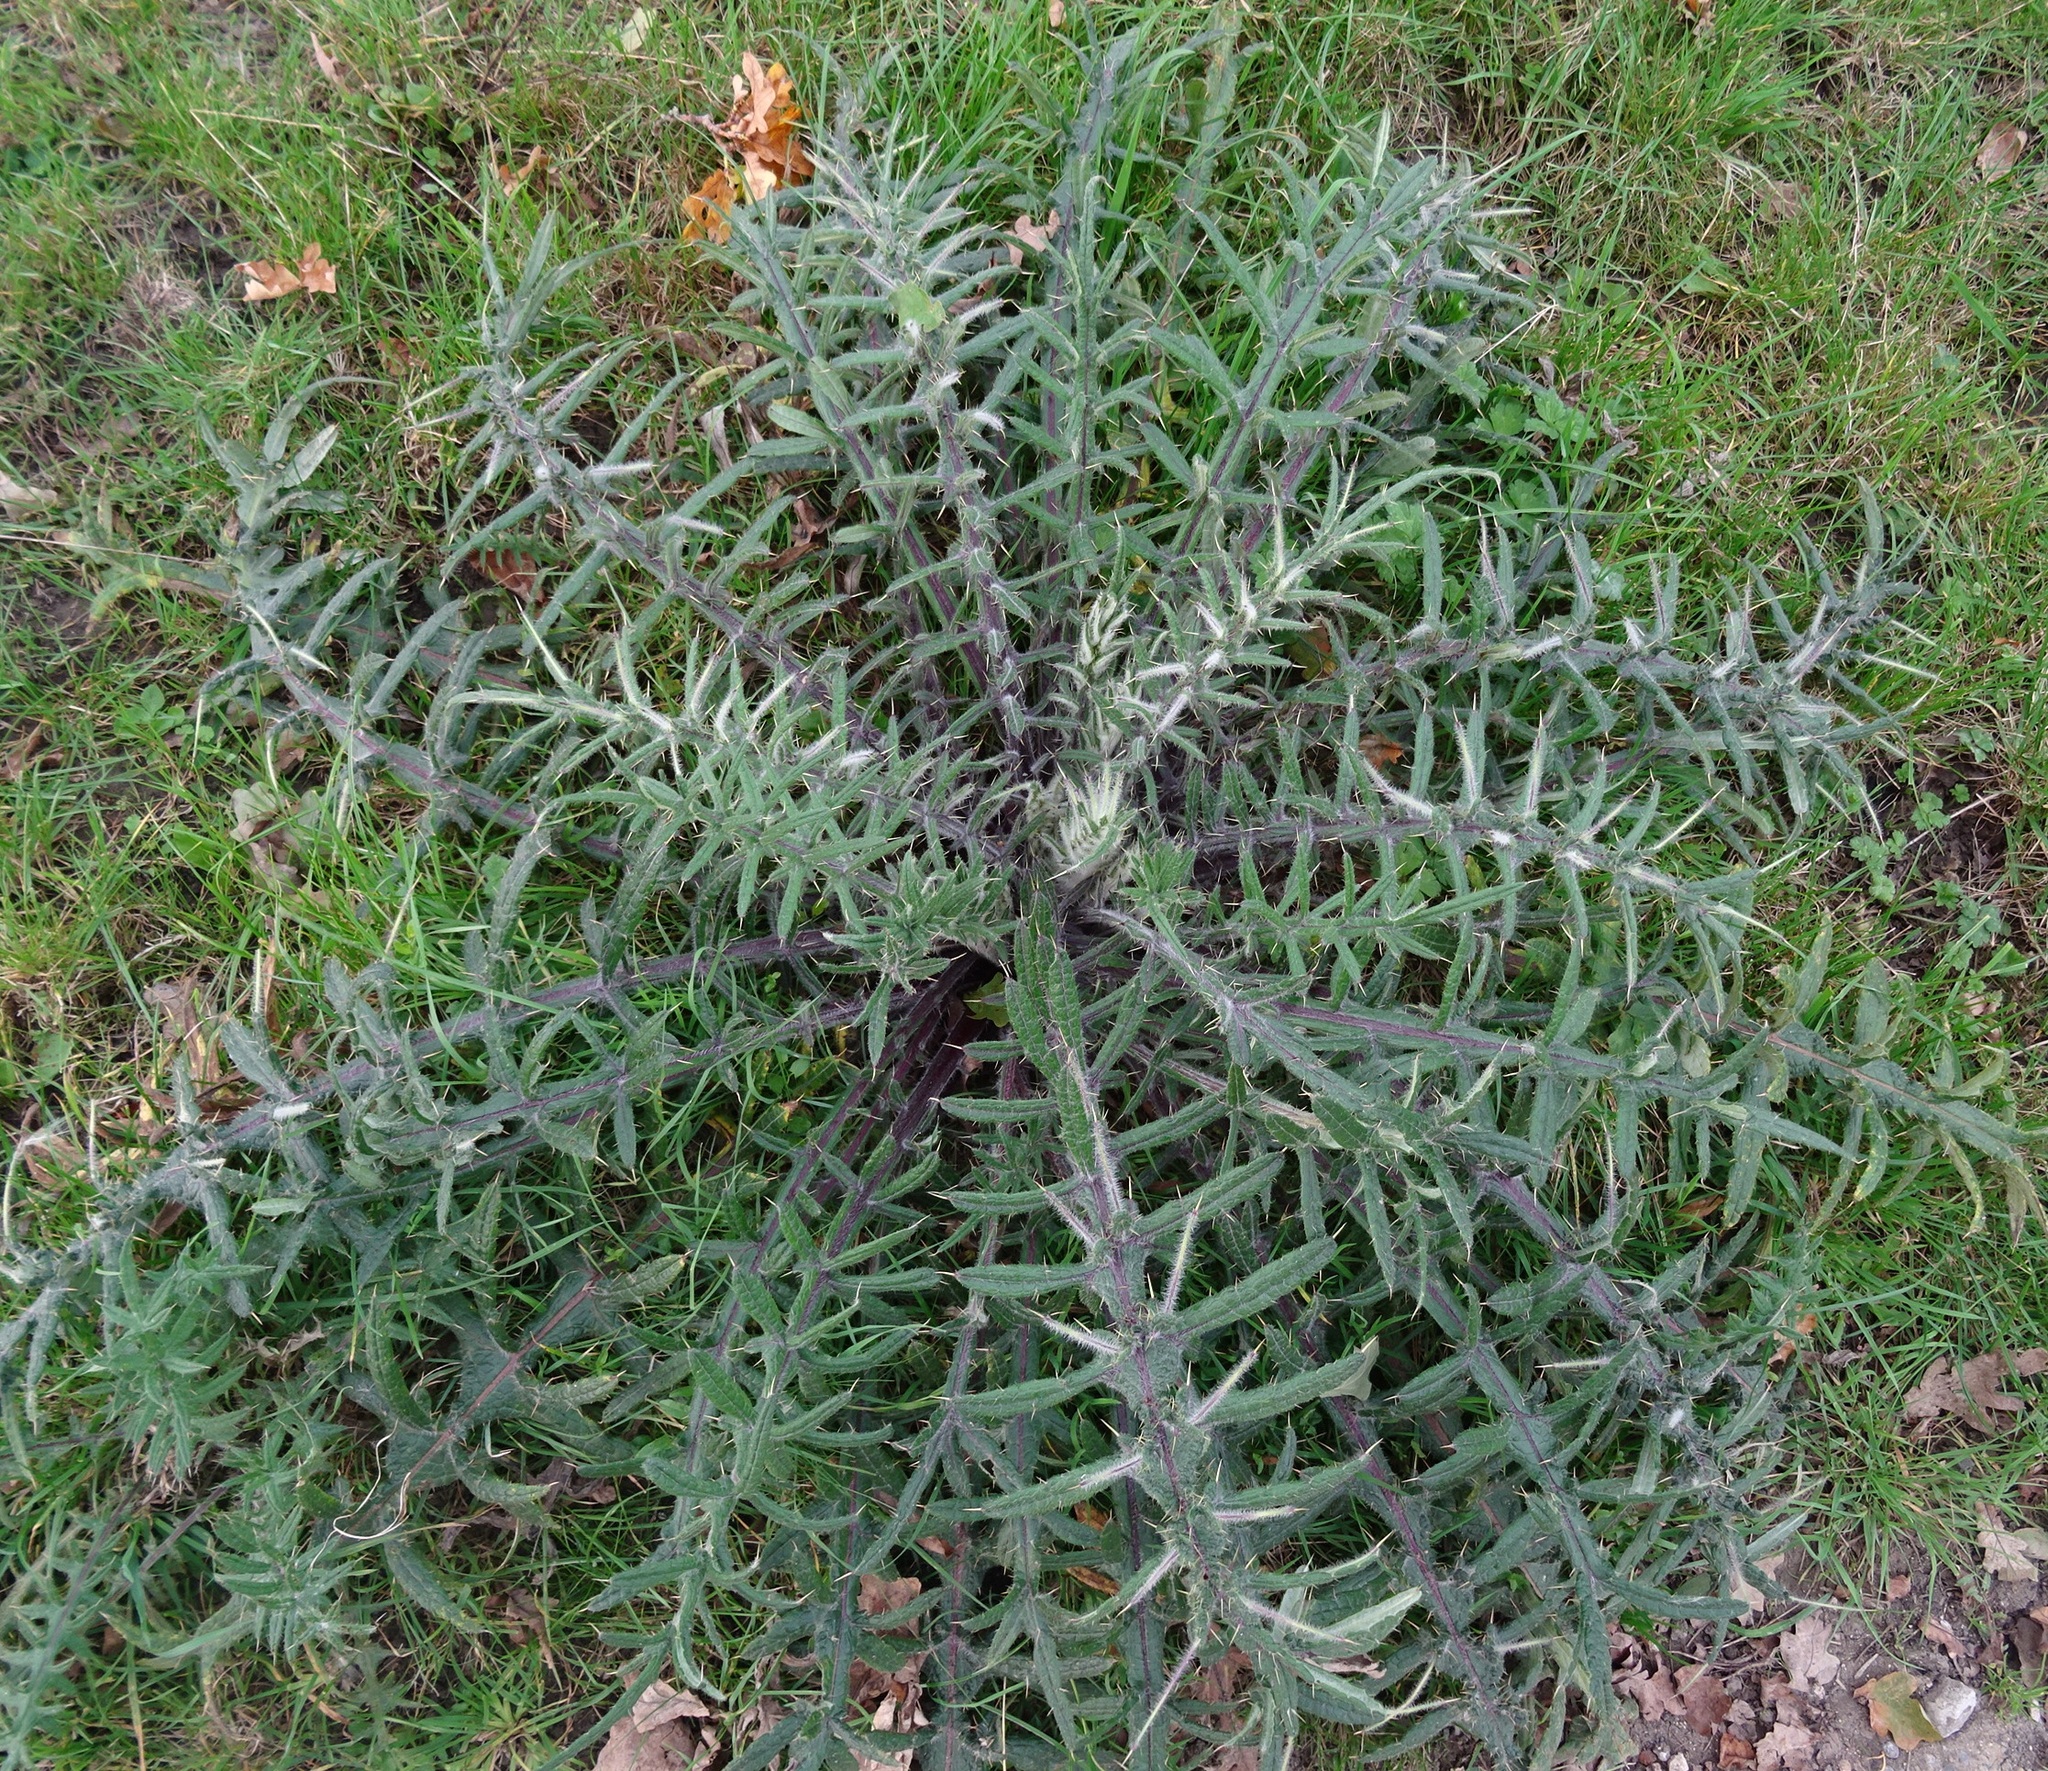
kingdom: Plantae
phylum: Tracheophyta
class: Magnoliopsida
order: Asterales
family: Asteraceae
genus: Lophiolepis
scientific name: Lophiolepis eriophora
